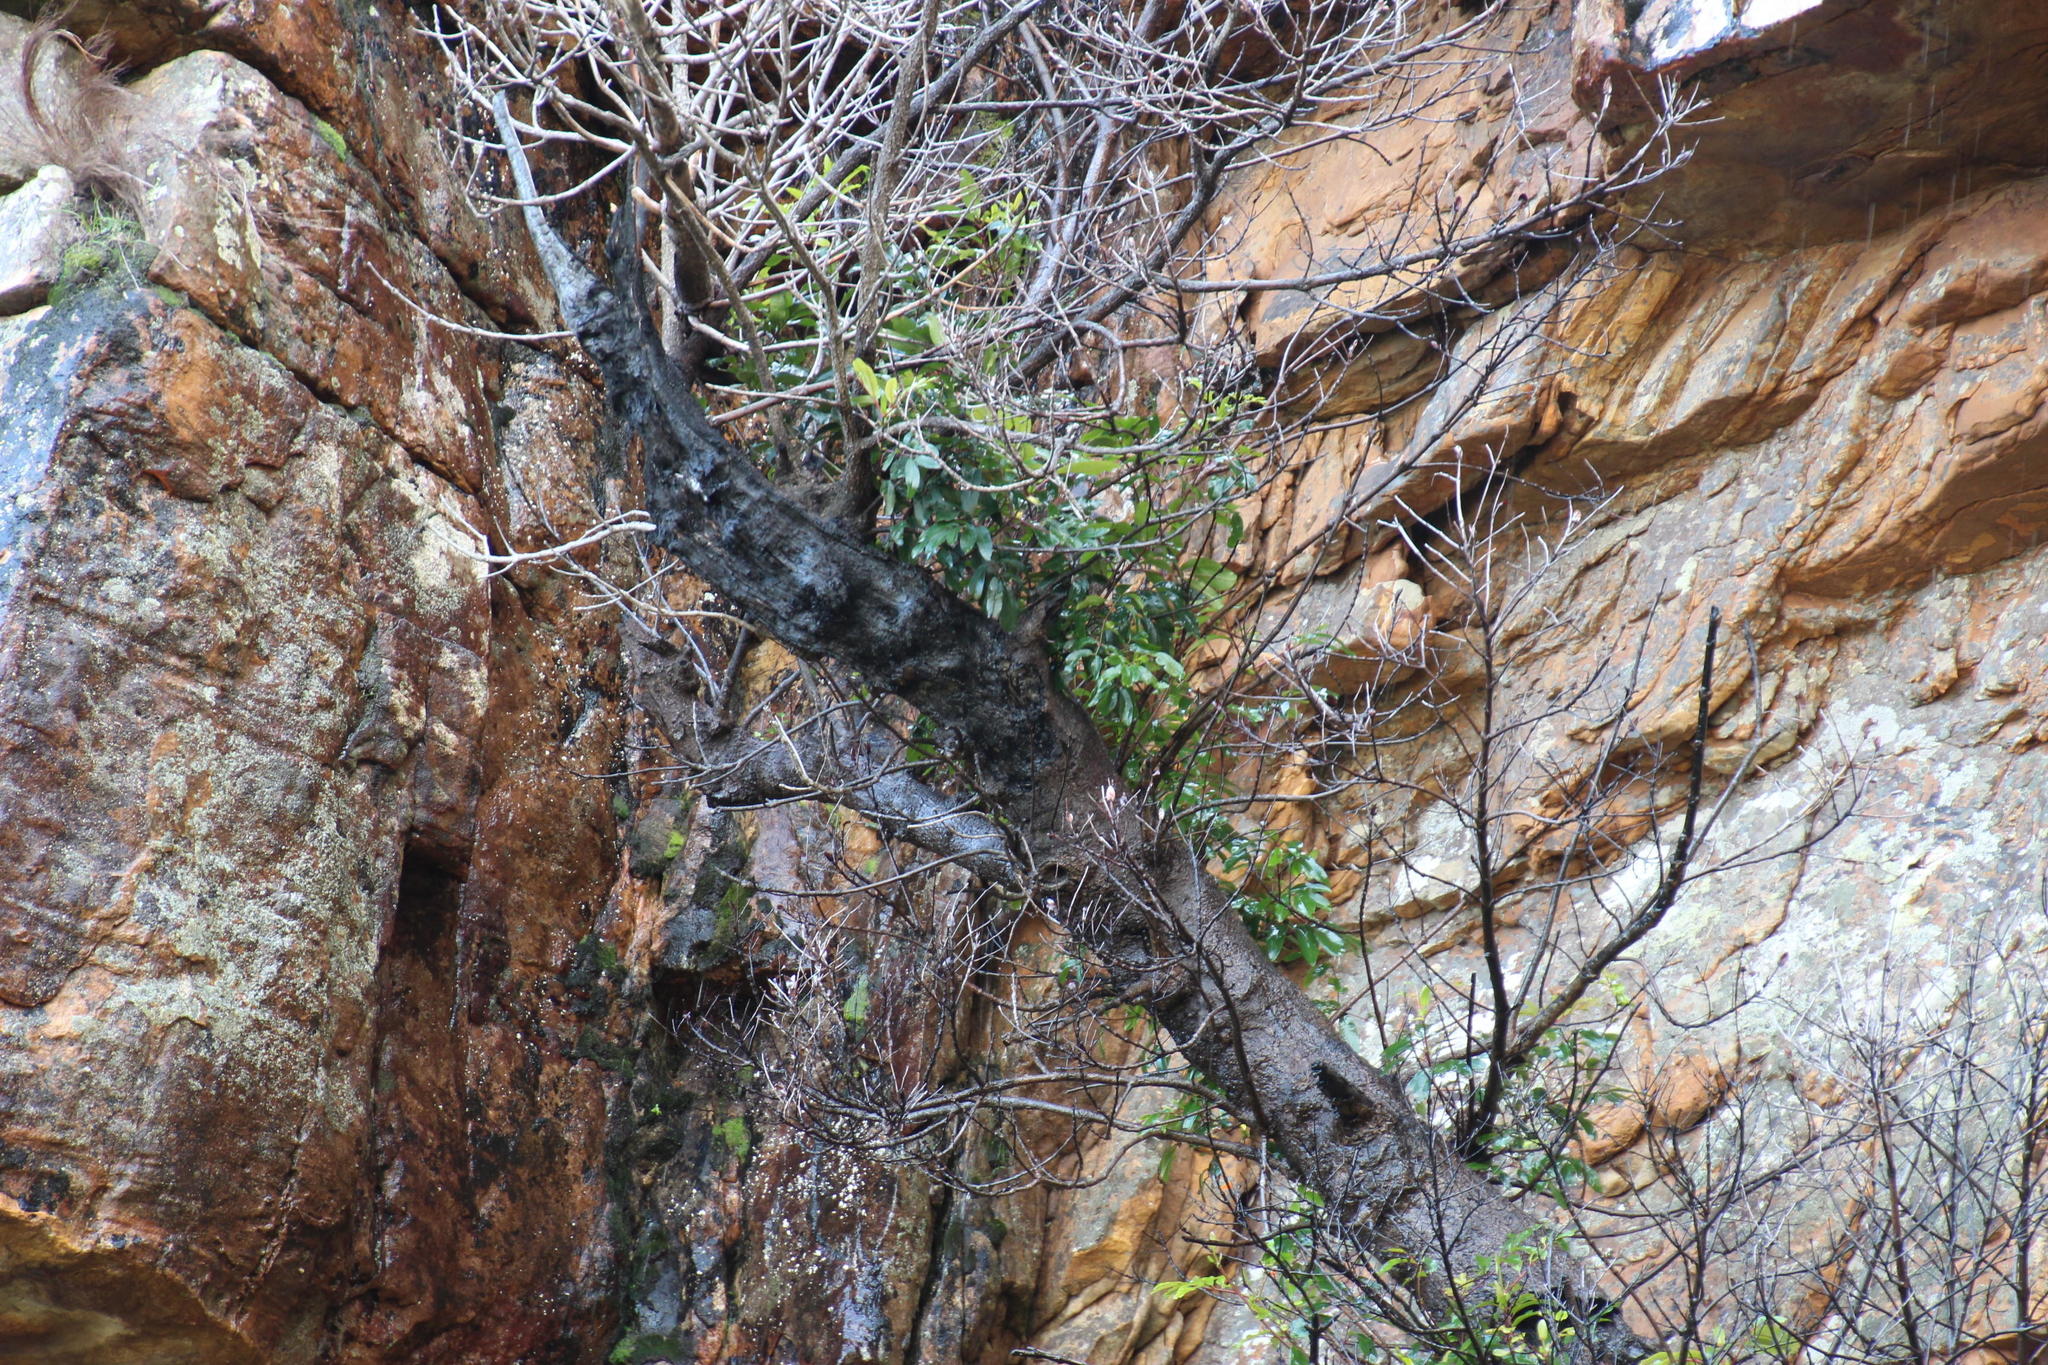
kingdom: Plantae
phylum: Tracheophyta
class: Magnoliopsida
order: Oxalidales
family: Cunoniaceae
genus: Cunonia
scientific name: Cunonia capensis
